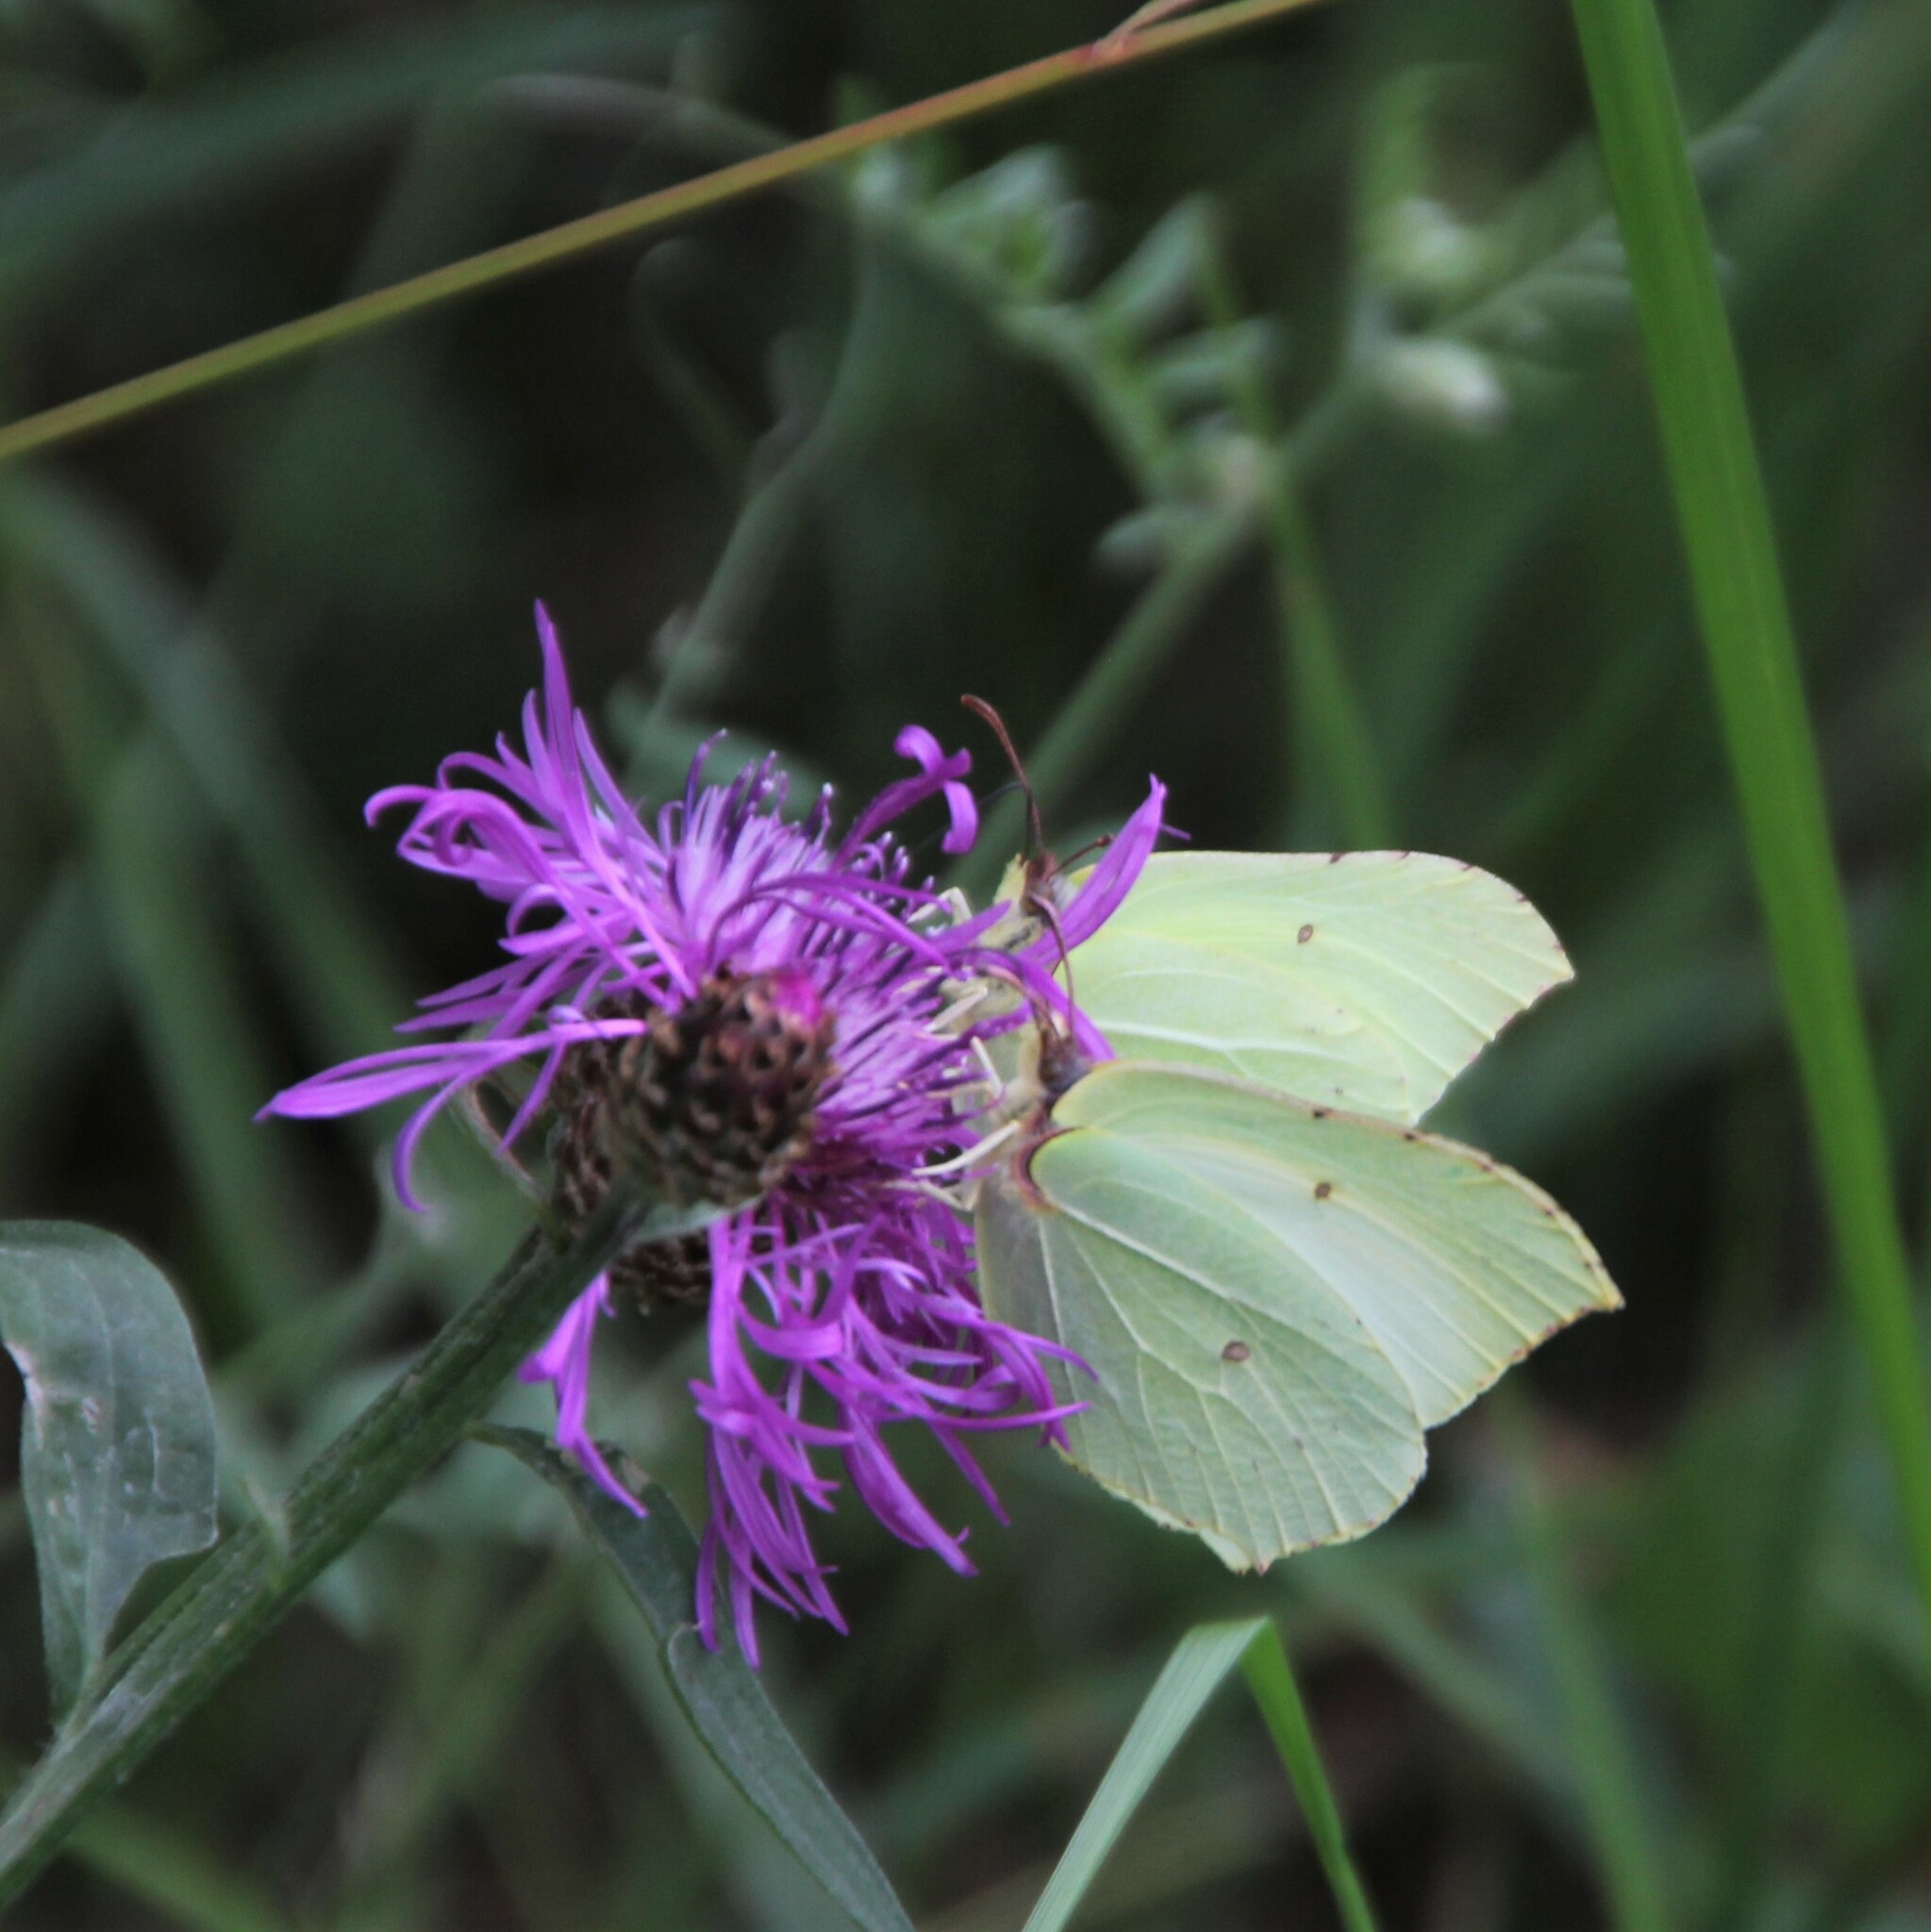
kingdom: Animalia
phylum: Arthropoda
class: Insecta
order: Lepidoptera
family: Pieridae
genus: Gonepteryx
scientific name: Gonepteryx rhamni
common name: Brimstone
